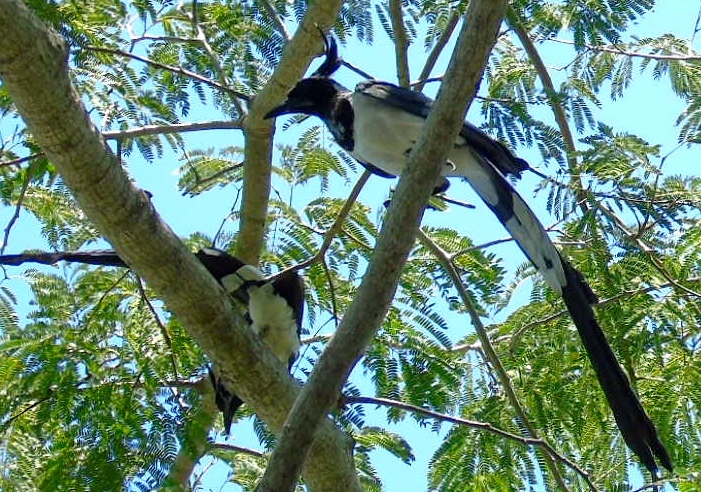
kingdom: Animalia
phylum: Chordata
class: Aves
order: Passeriformes
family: Corvidae
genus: Calocitta
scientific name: Calocitta colliei
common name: Black-throated magpie-jay
